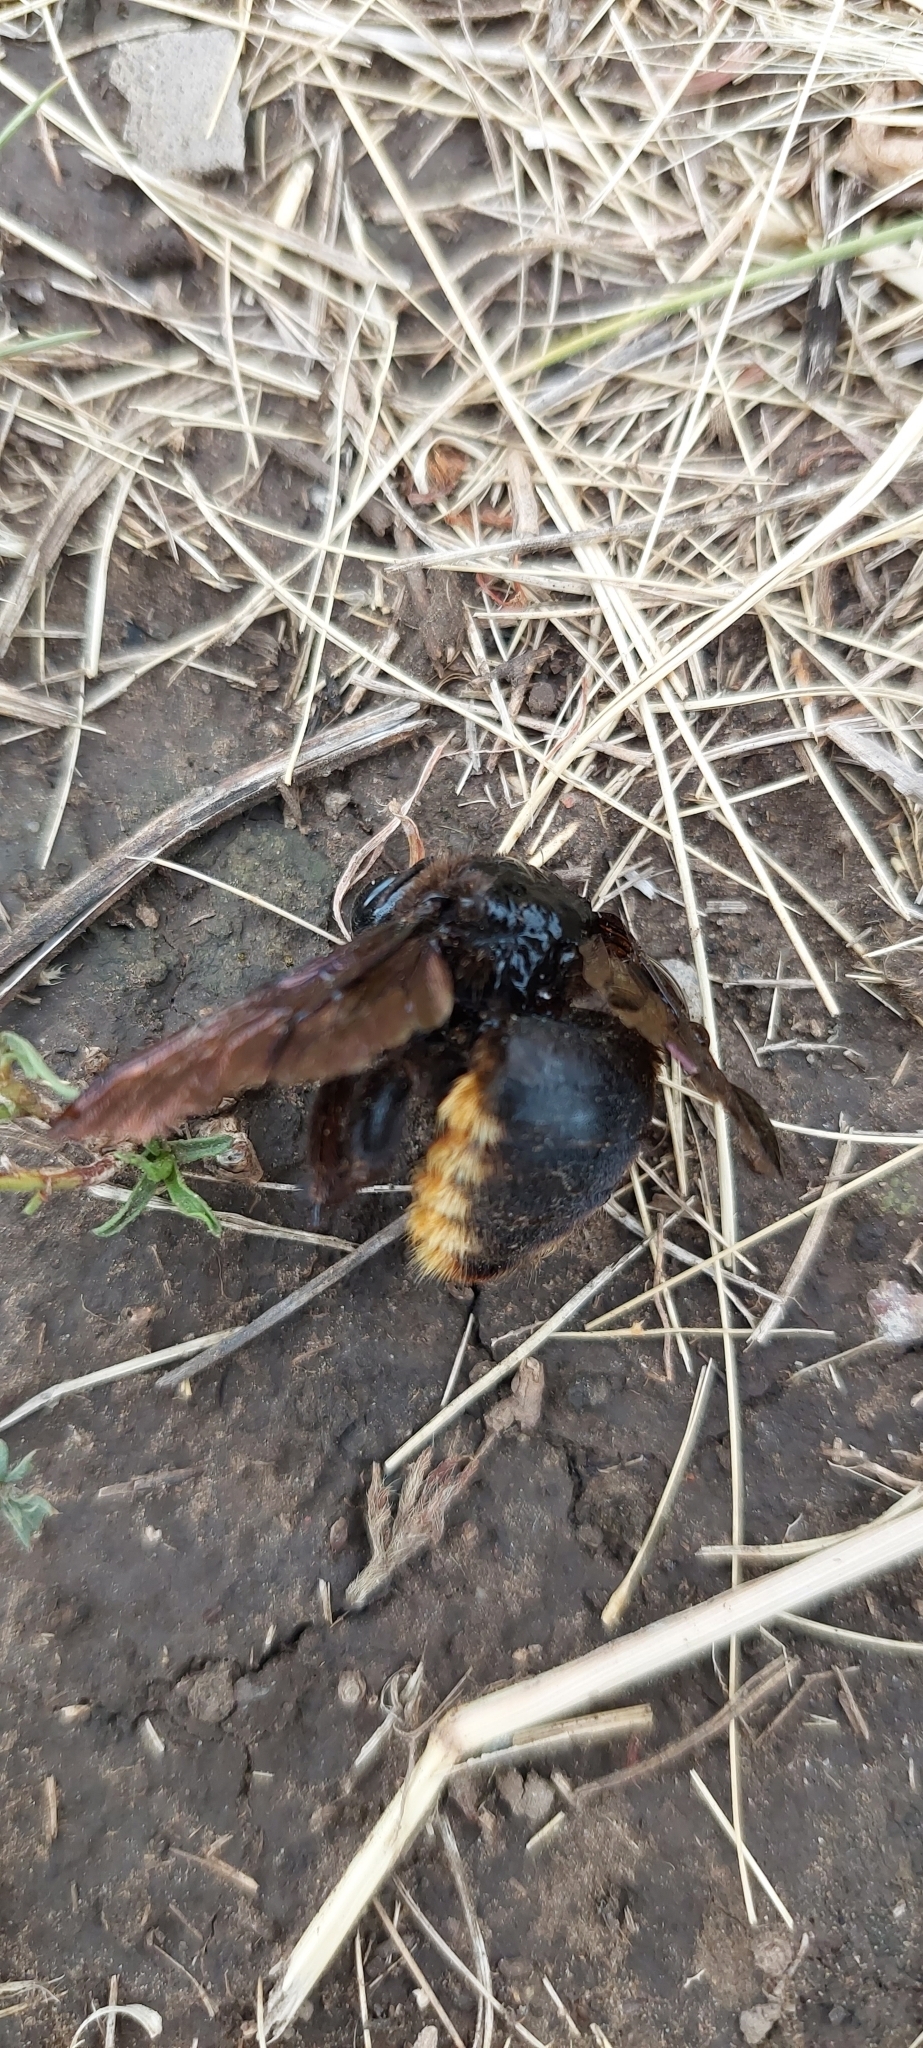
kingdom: Animalia
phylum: Arthropoda
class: Insecta
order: Hymenoptera
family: Apidae
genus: Xylocopa
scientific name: Xylocopa augusti
